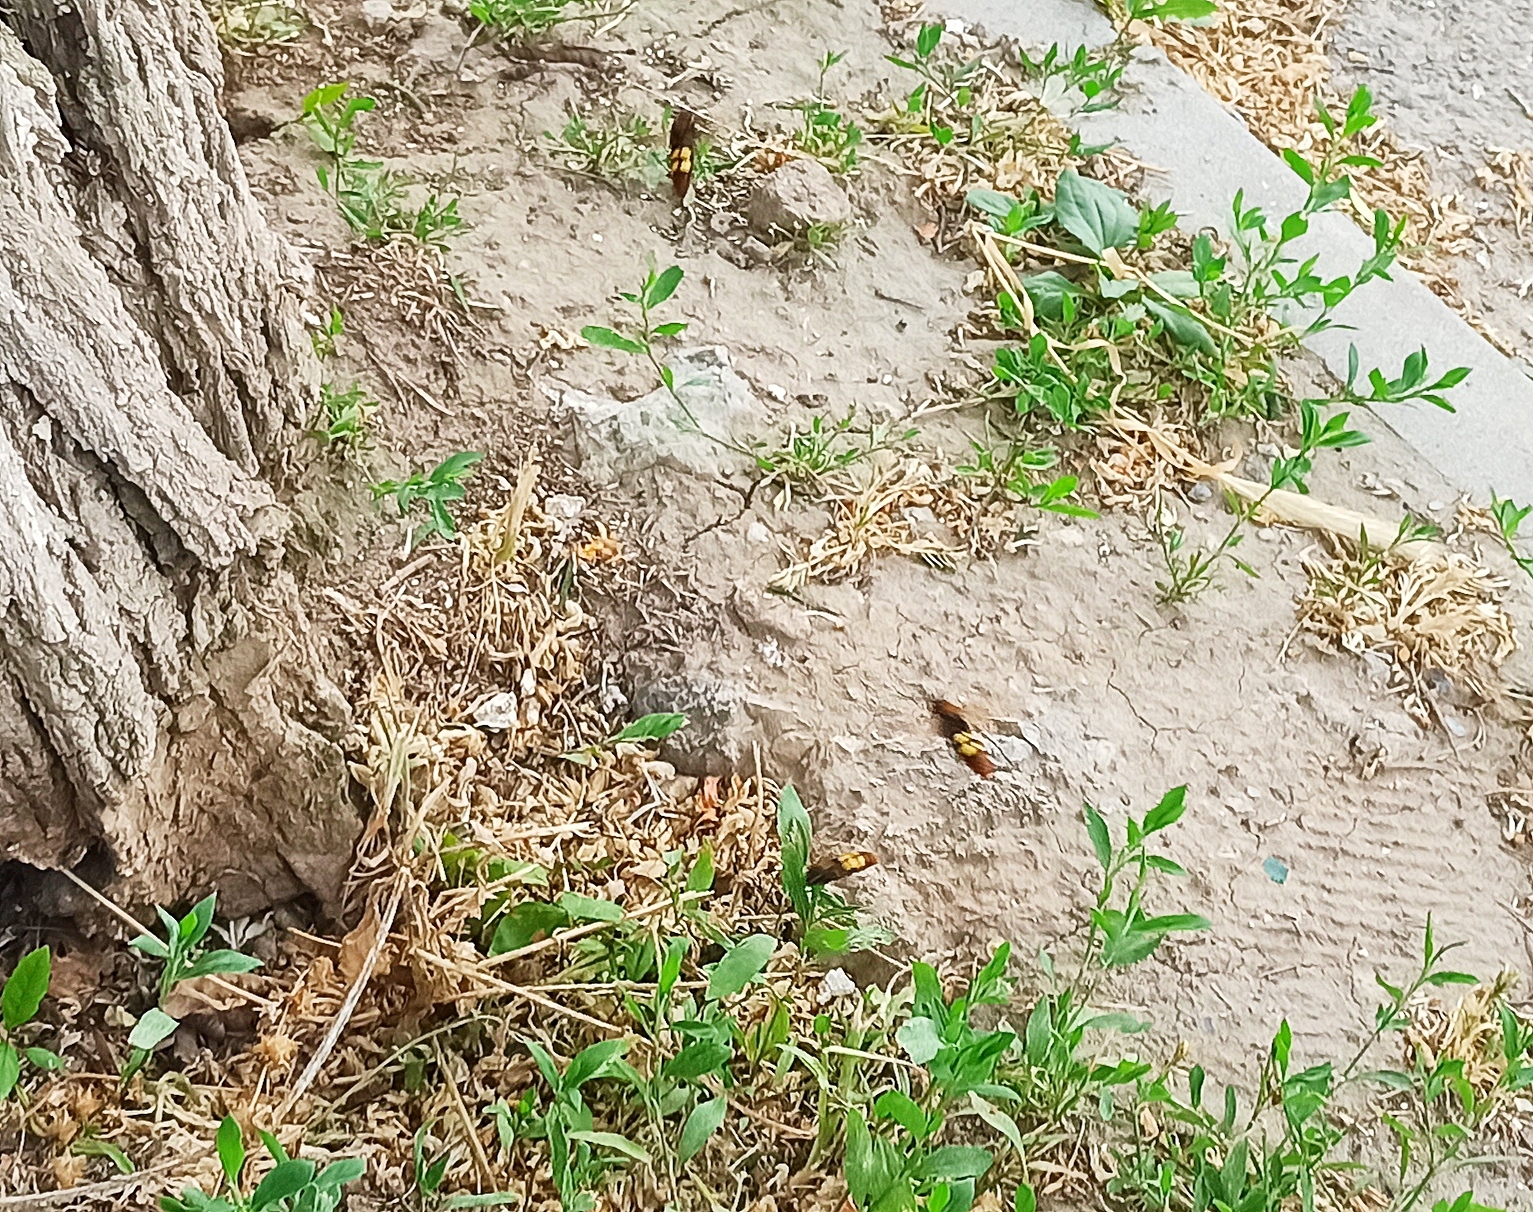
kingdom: Animalia
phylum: Arthropoda
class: Insecta
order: Hymenoptera
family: Scoliidae
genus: Megascolia
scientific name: Megascolia maculata
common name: Mammoth wasp
